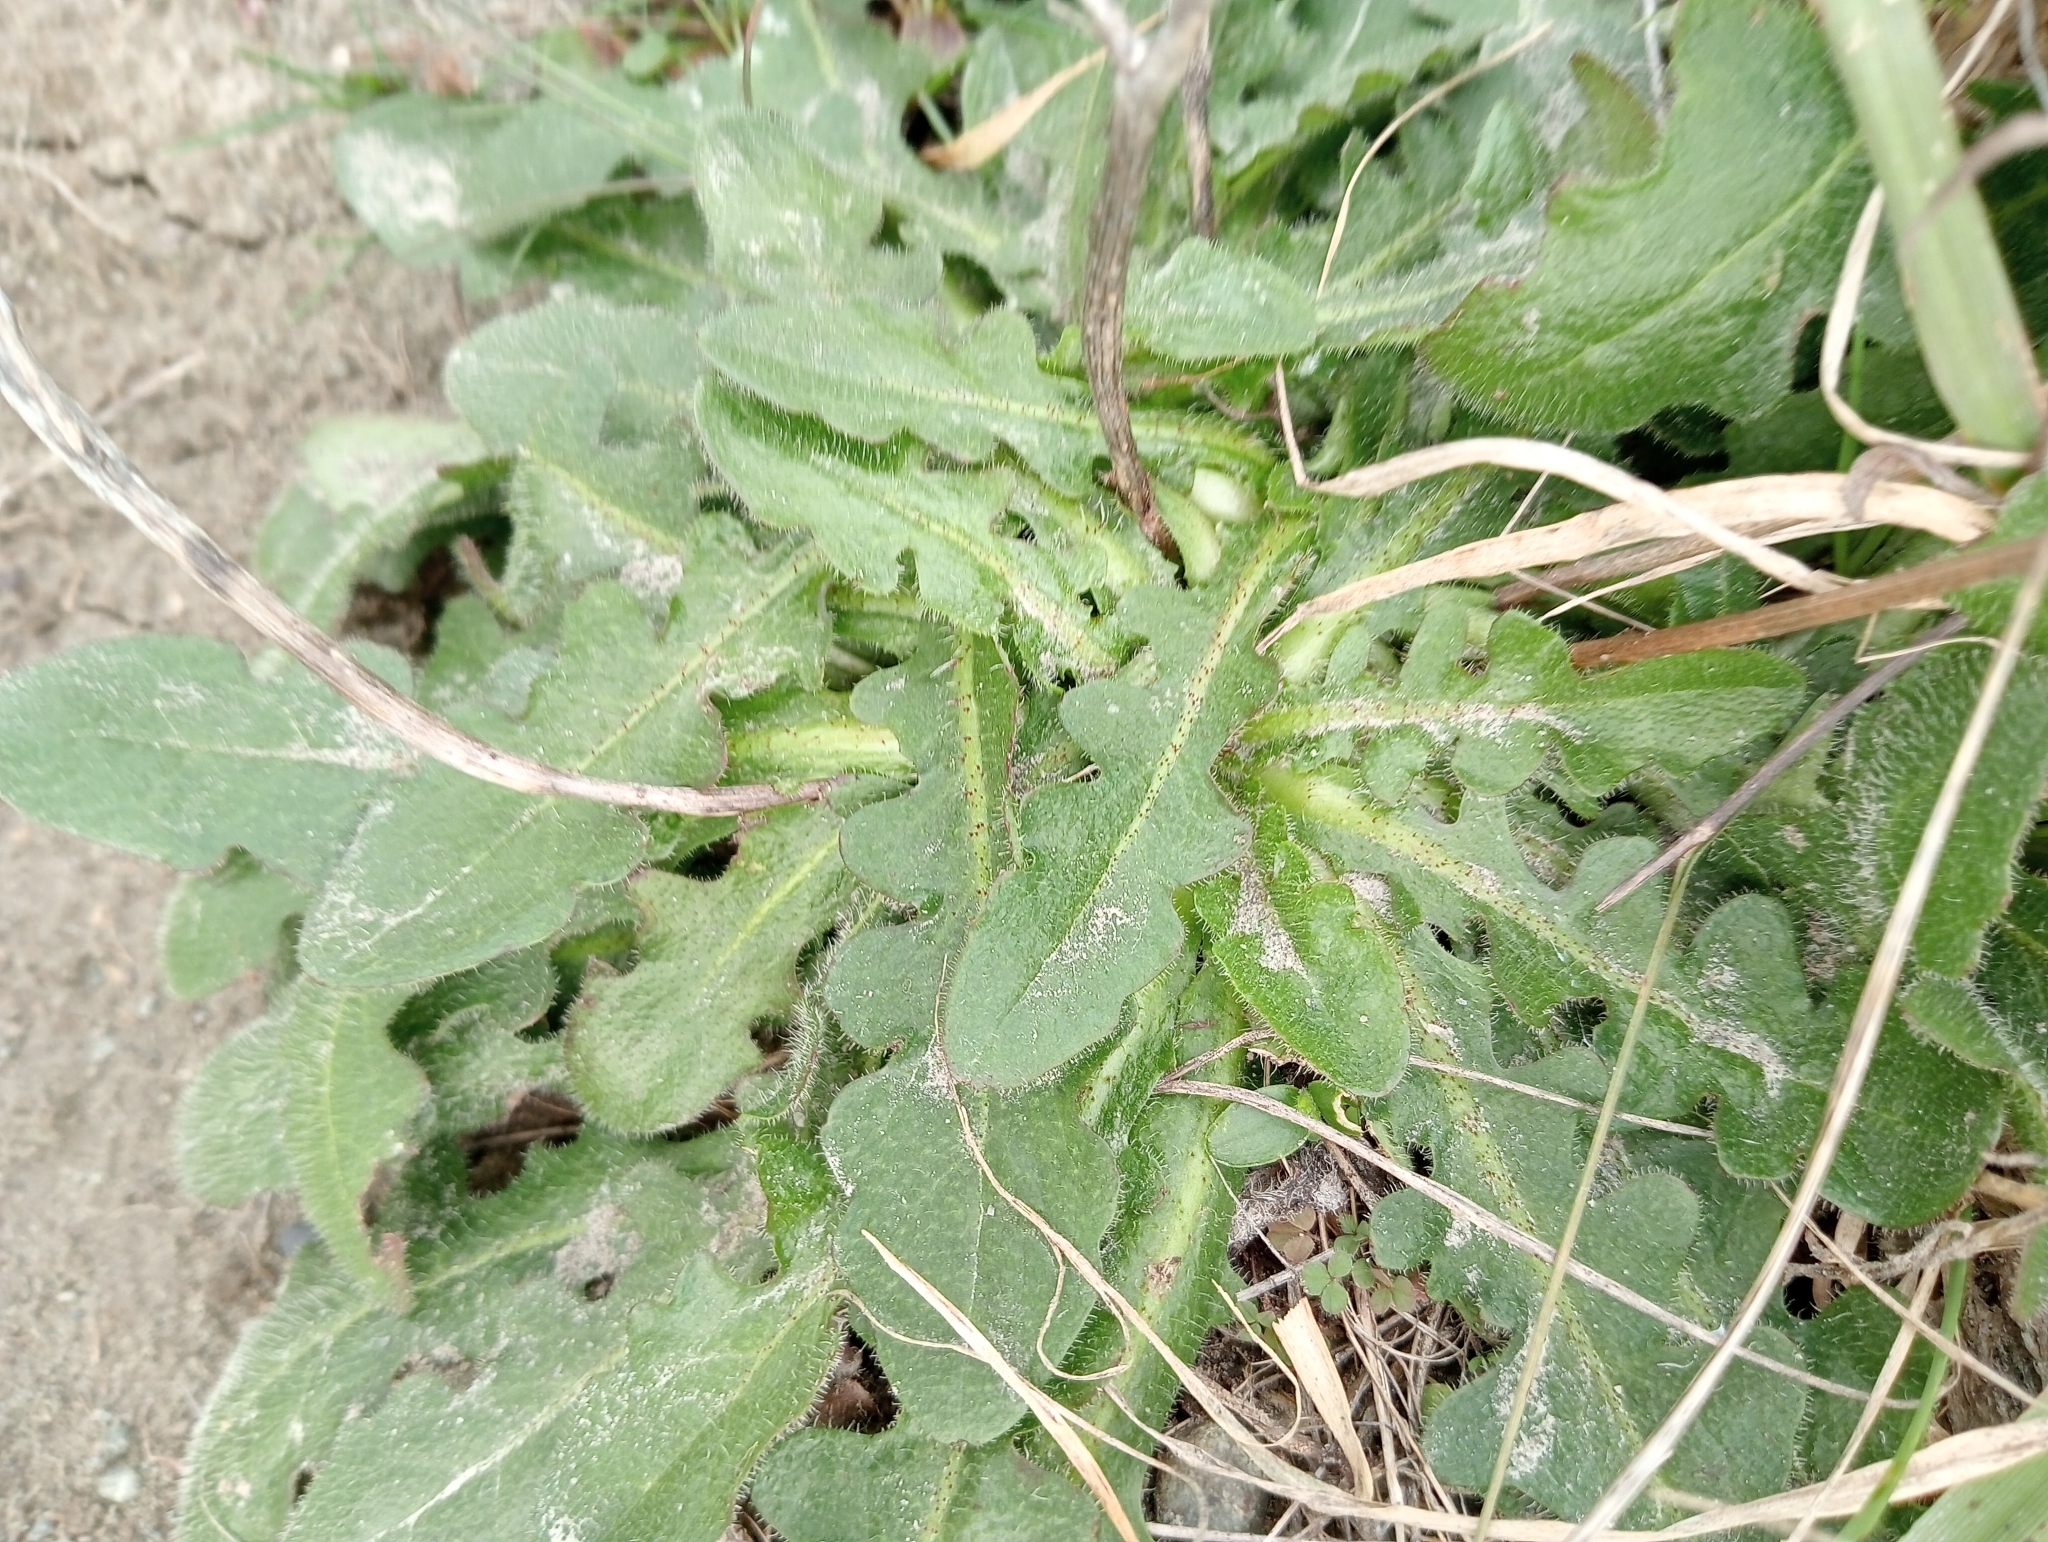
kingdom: Plantae
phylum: Tracheophyta
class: Magnoliopsida
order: Asterales
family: Asteraceae
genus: Hypochaeris
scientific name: Hypochaeris radicata
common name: Flatweed
